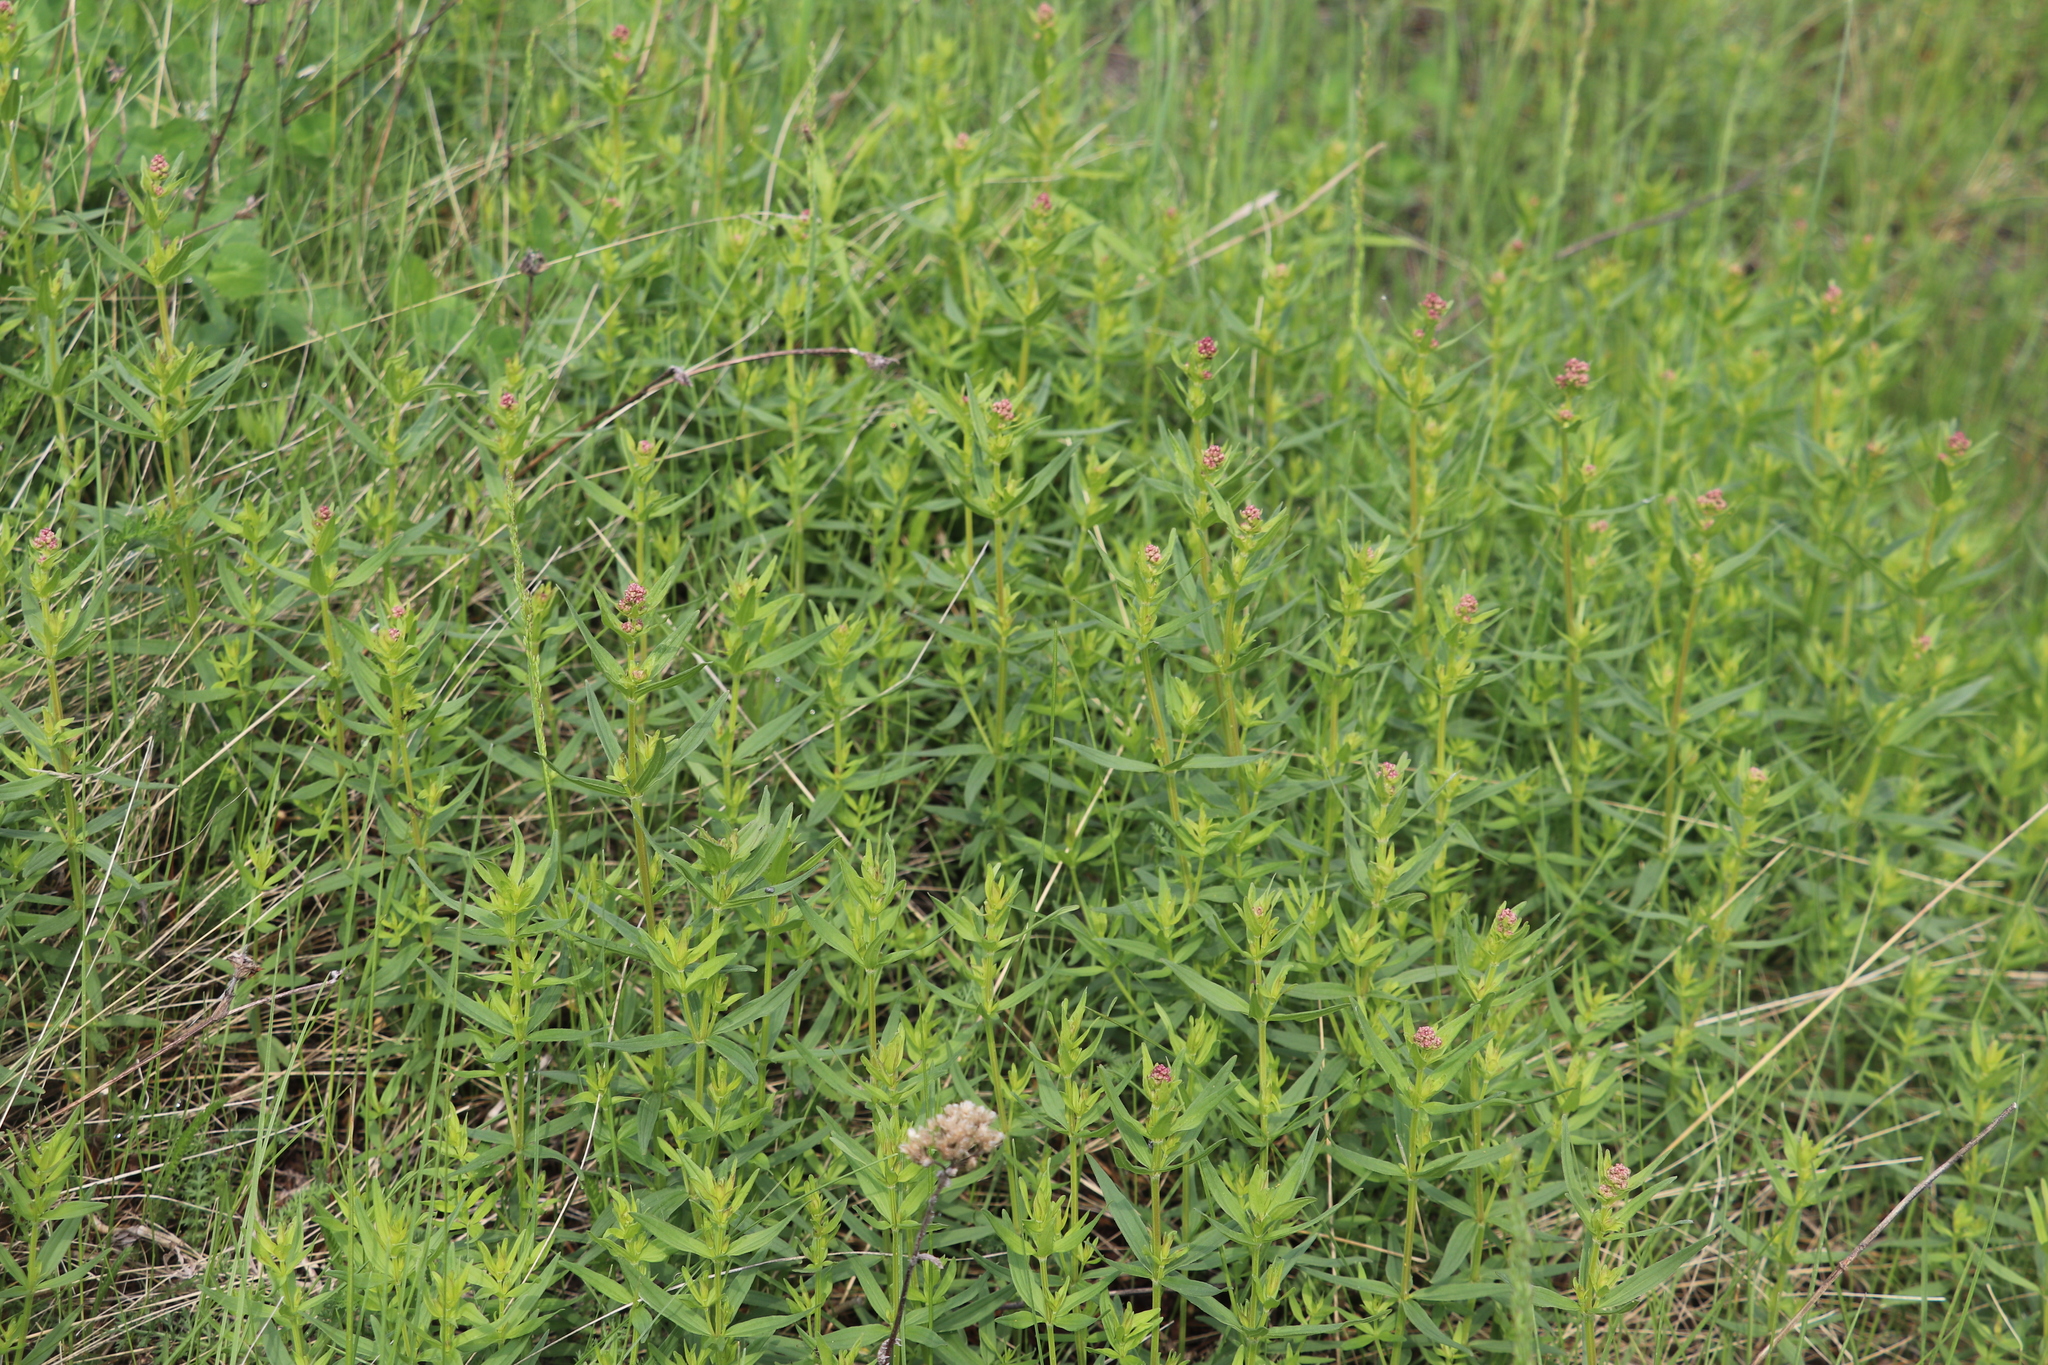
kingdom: Plantae
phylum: Tracheophyta
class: Magnoliopsida
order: Gentianales
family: Rubiaceae
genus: Galium
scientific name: Galium boreale
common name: Northern bedstraw
